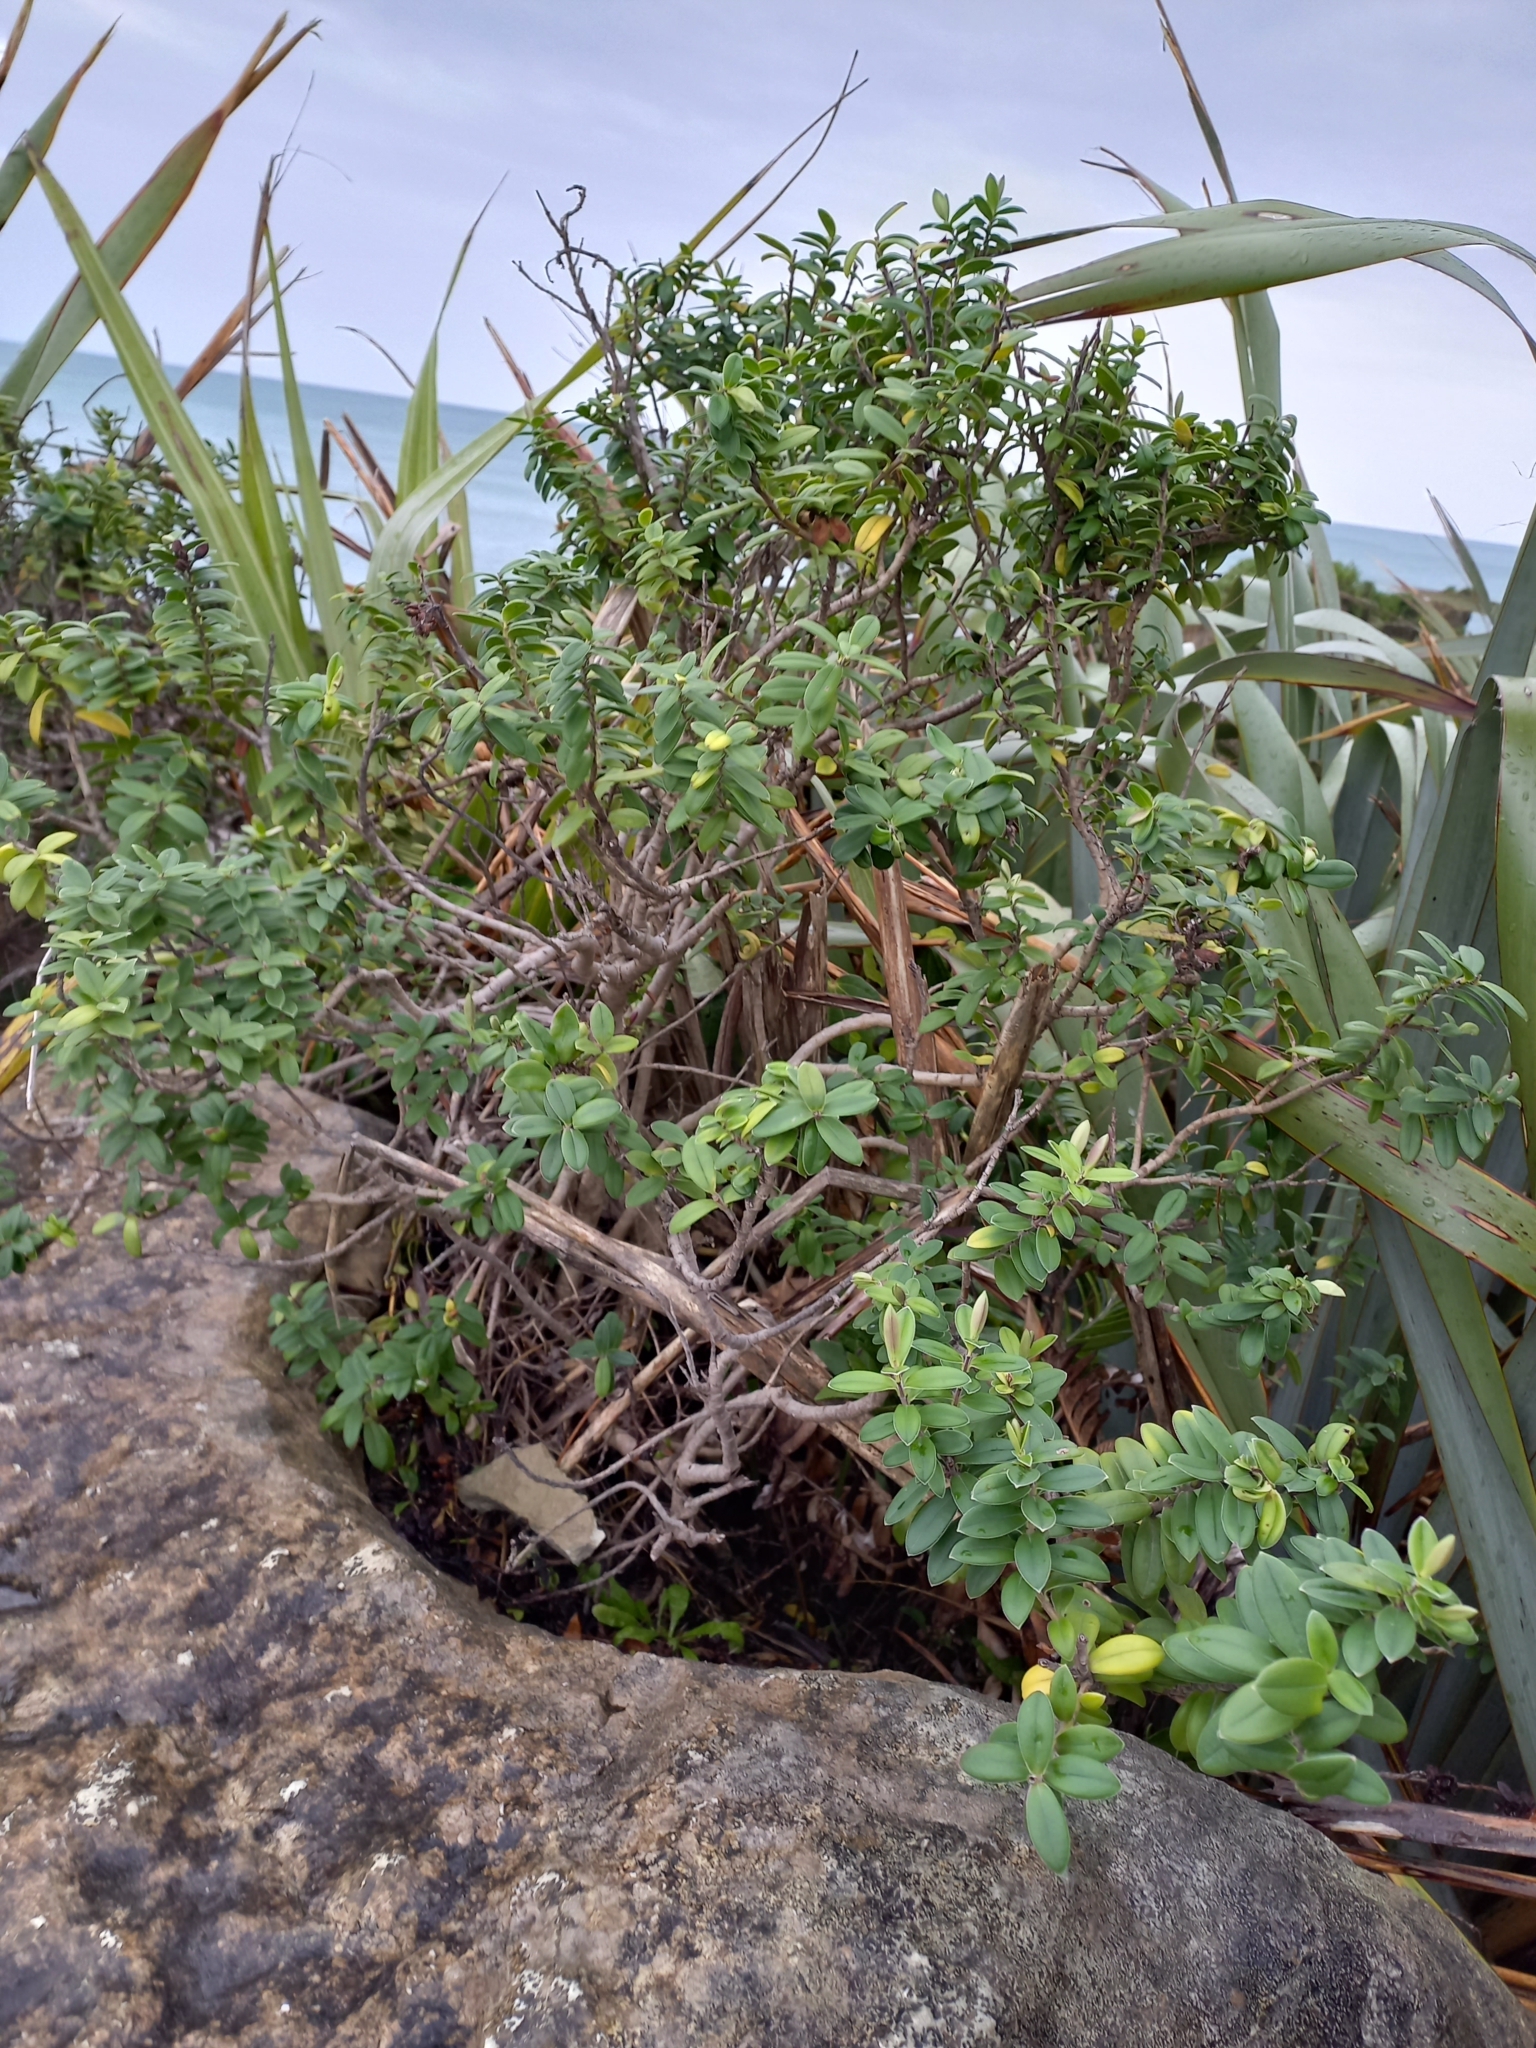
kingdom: Plantae
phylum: Tracheophyta
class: Magnoliopsida
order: Lamiales
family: Plantaginaceae
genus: Veronica
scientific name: Veronica elliptica
